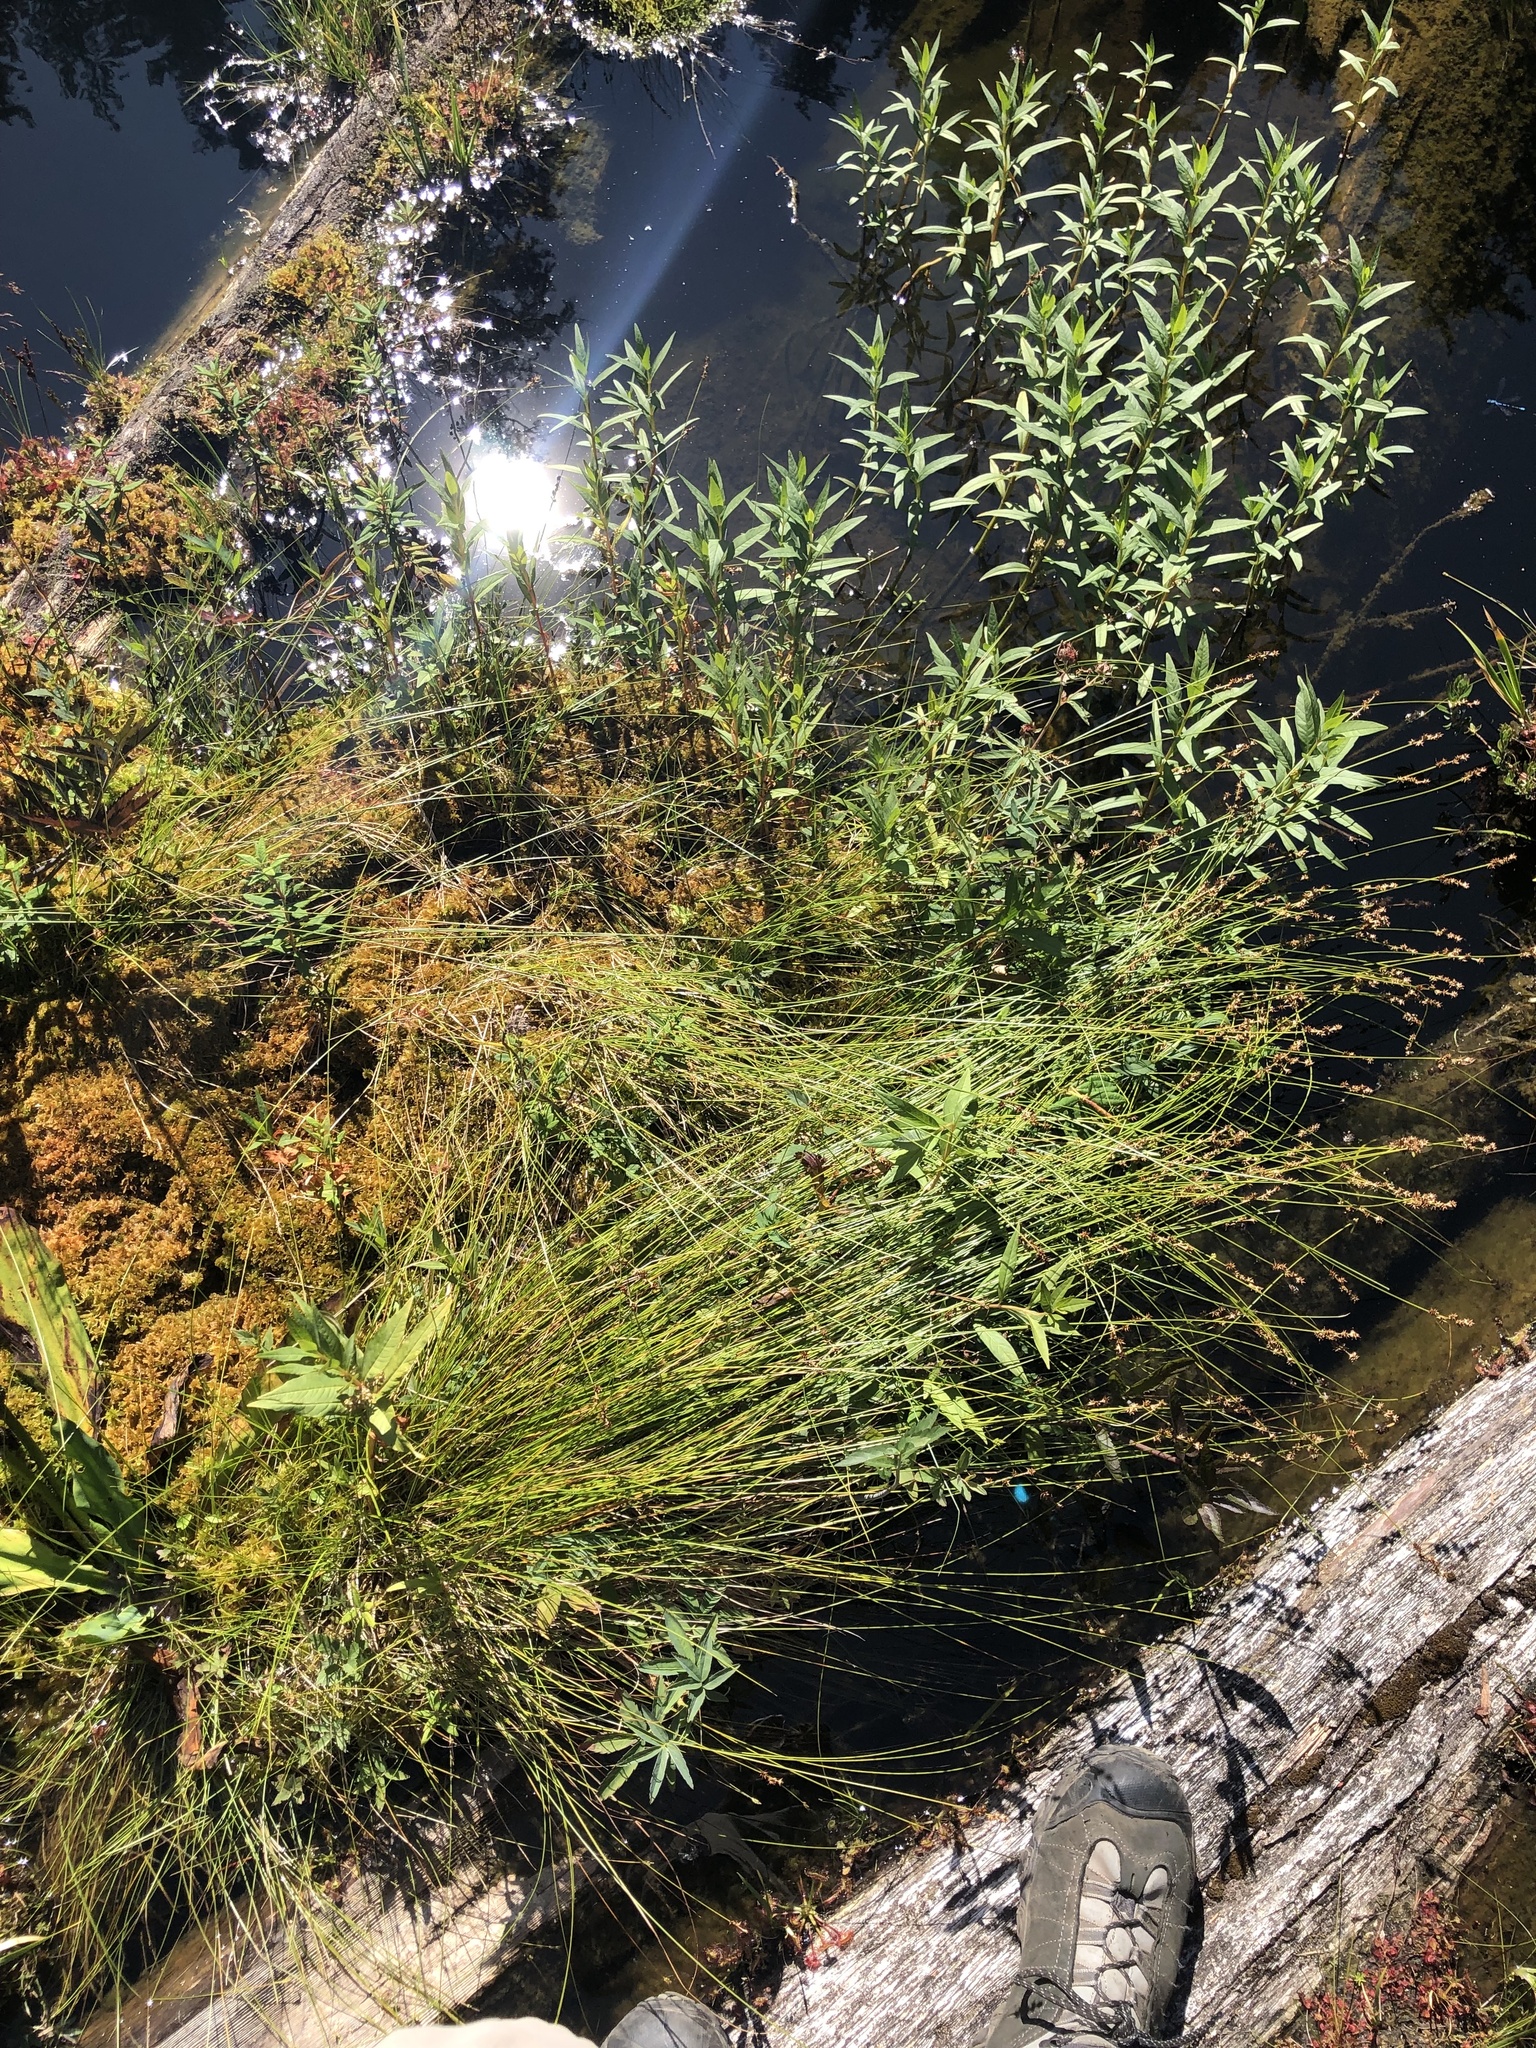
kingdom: Plantae
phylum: Tracheophyta
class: Liliopsida
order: Poales
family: Cyperaceae
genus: Carex
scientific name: Carex echinata
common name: Star sedge
